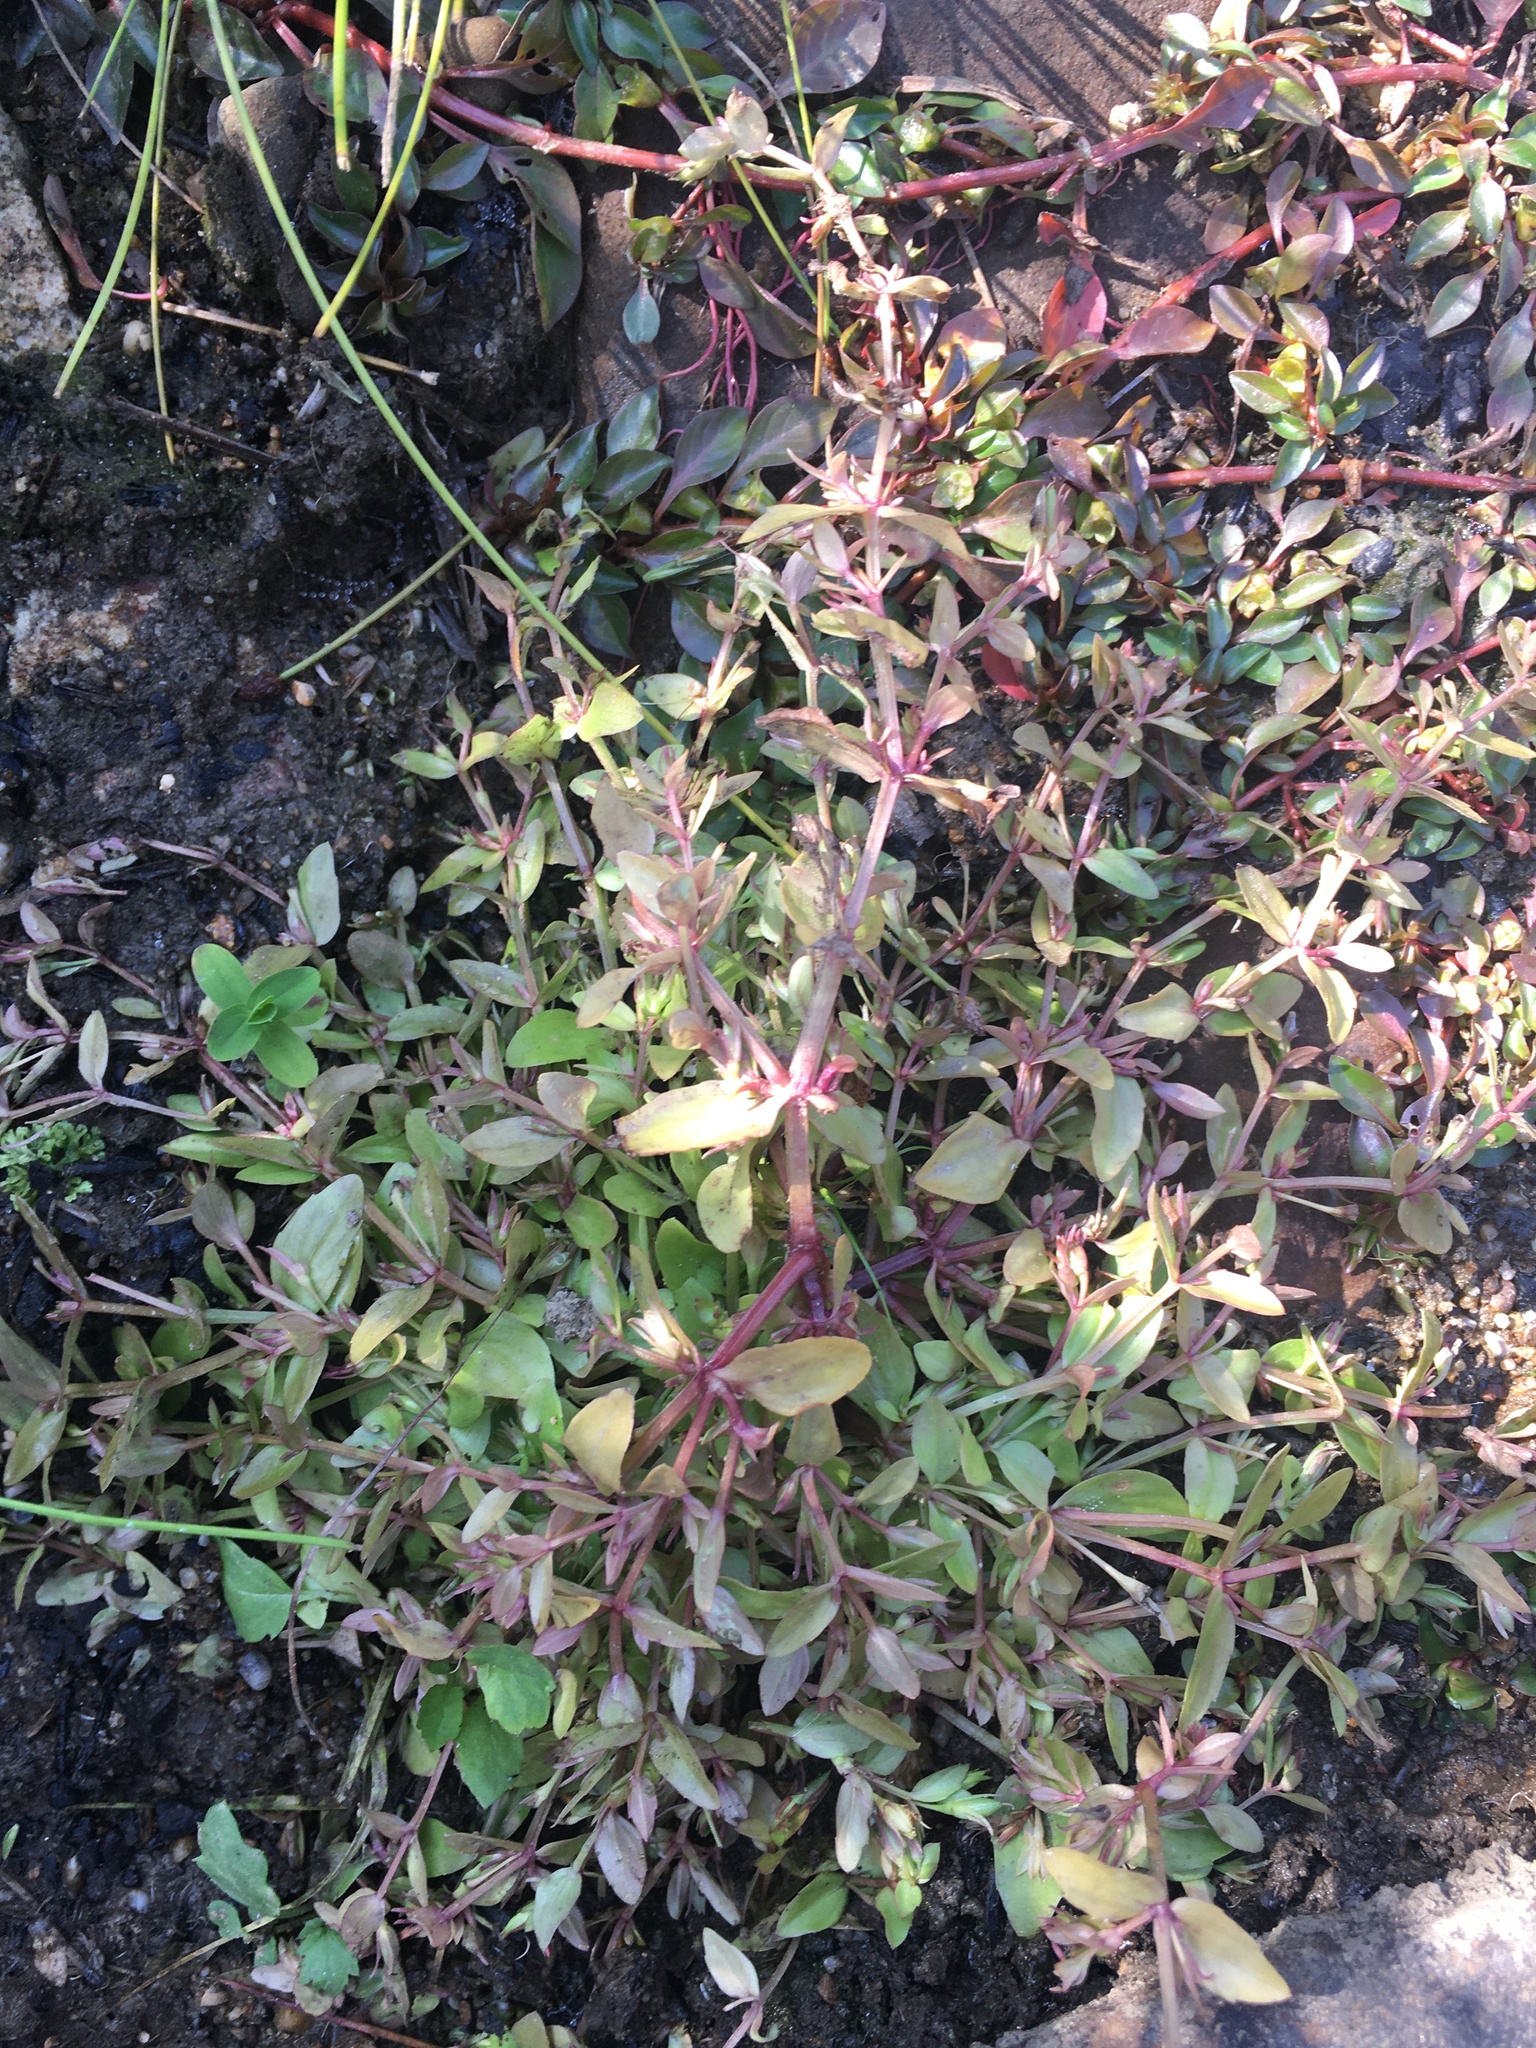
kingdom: Plantae
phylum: Tracheophyta
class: Magnoliopsida
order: Lamiales
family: Linderniaceae
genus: Lindernia
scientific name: Lindernia dubia
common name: Annual false pimpernel
